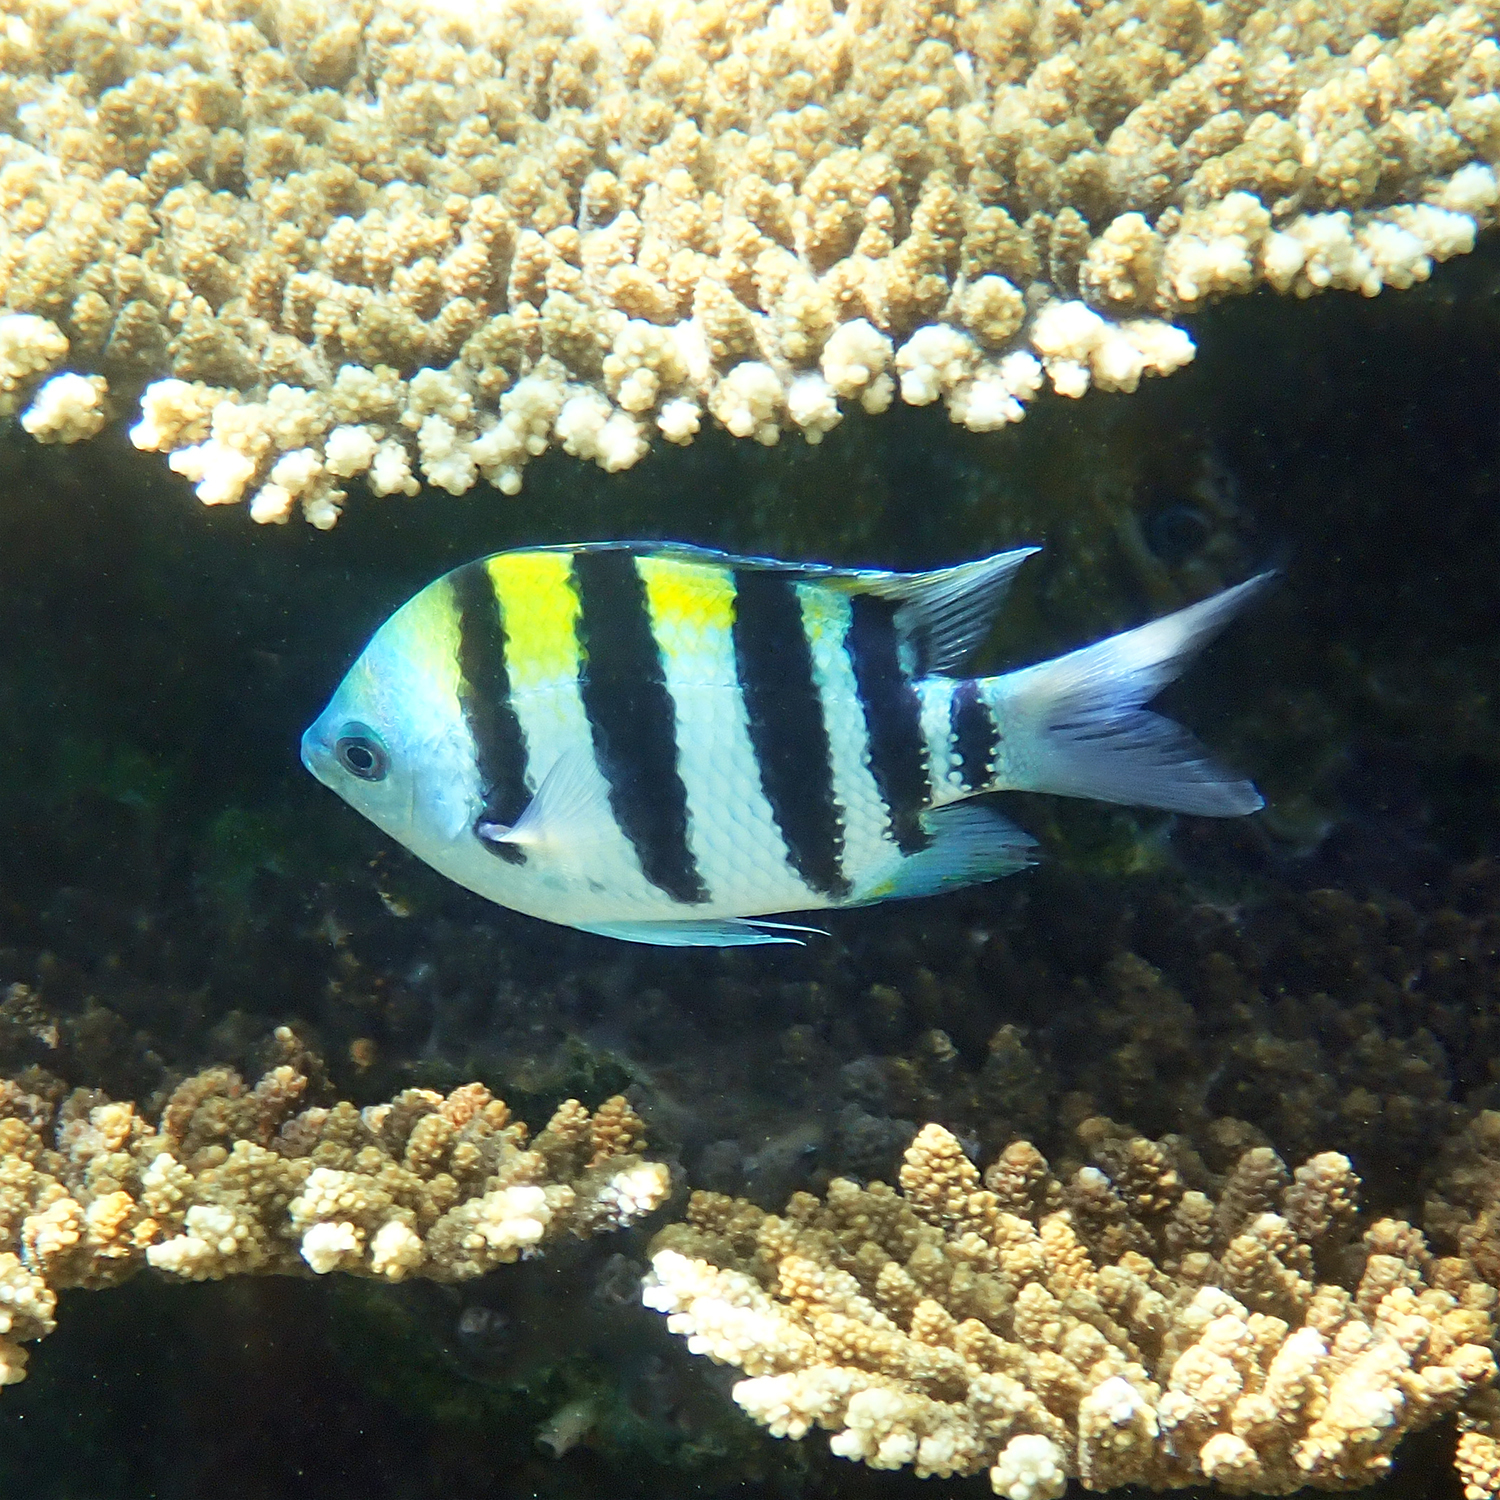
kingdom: Animalia
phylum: Chordata
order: Perciformes
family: Pomacentridae
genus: Abudefduf
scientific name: Abudefduf vaigiensis
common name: Indo-pacific sergeant
